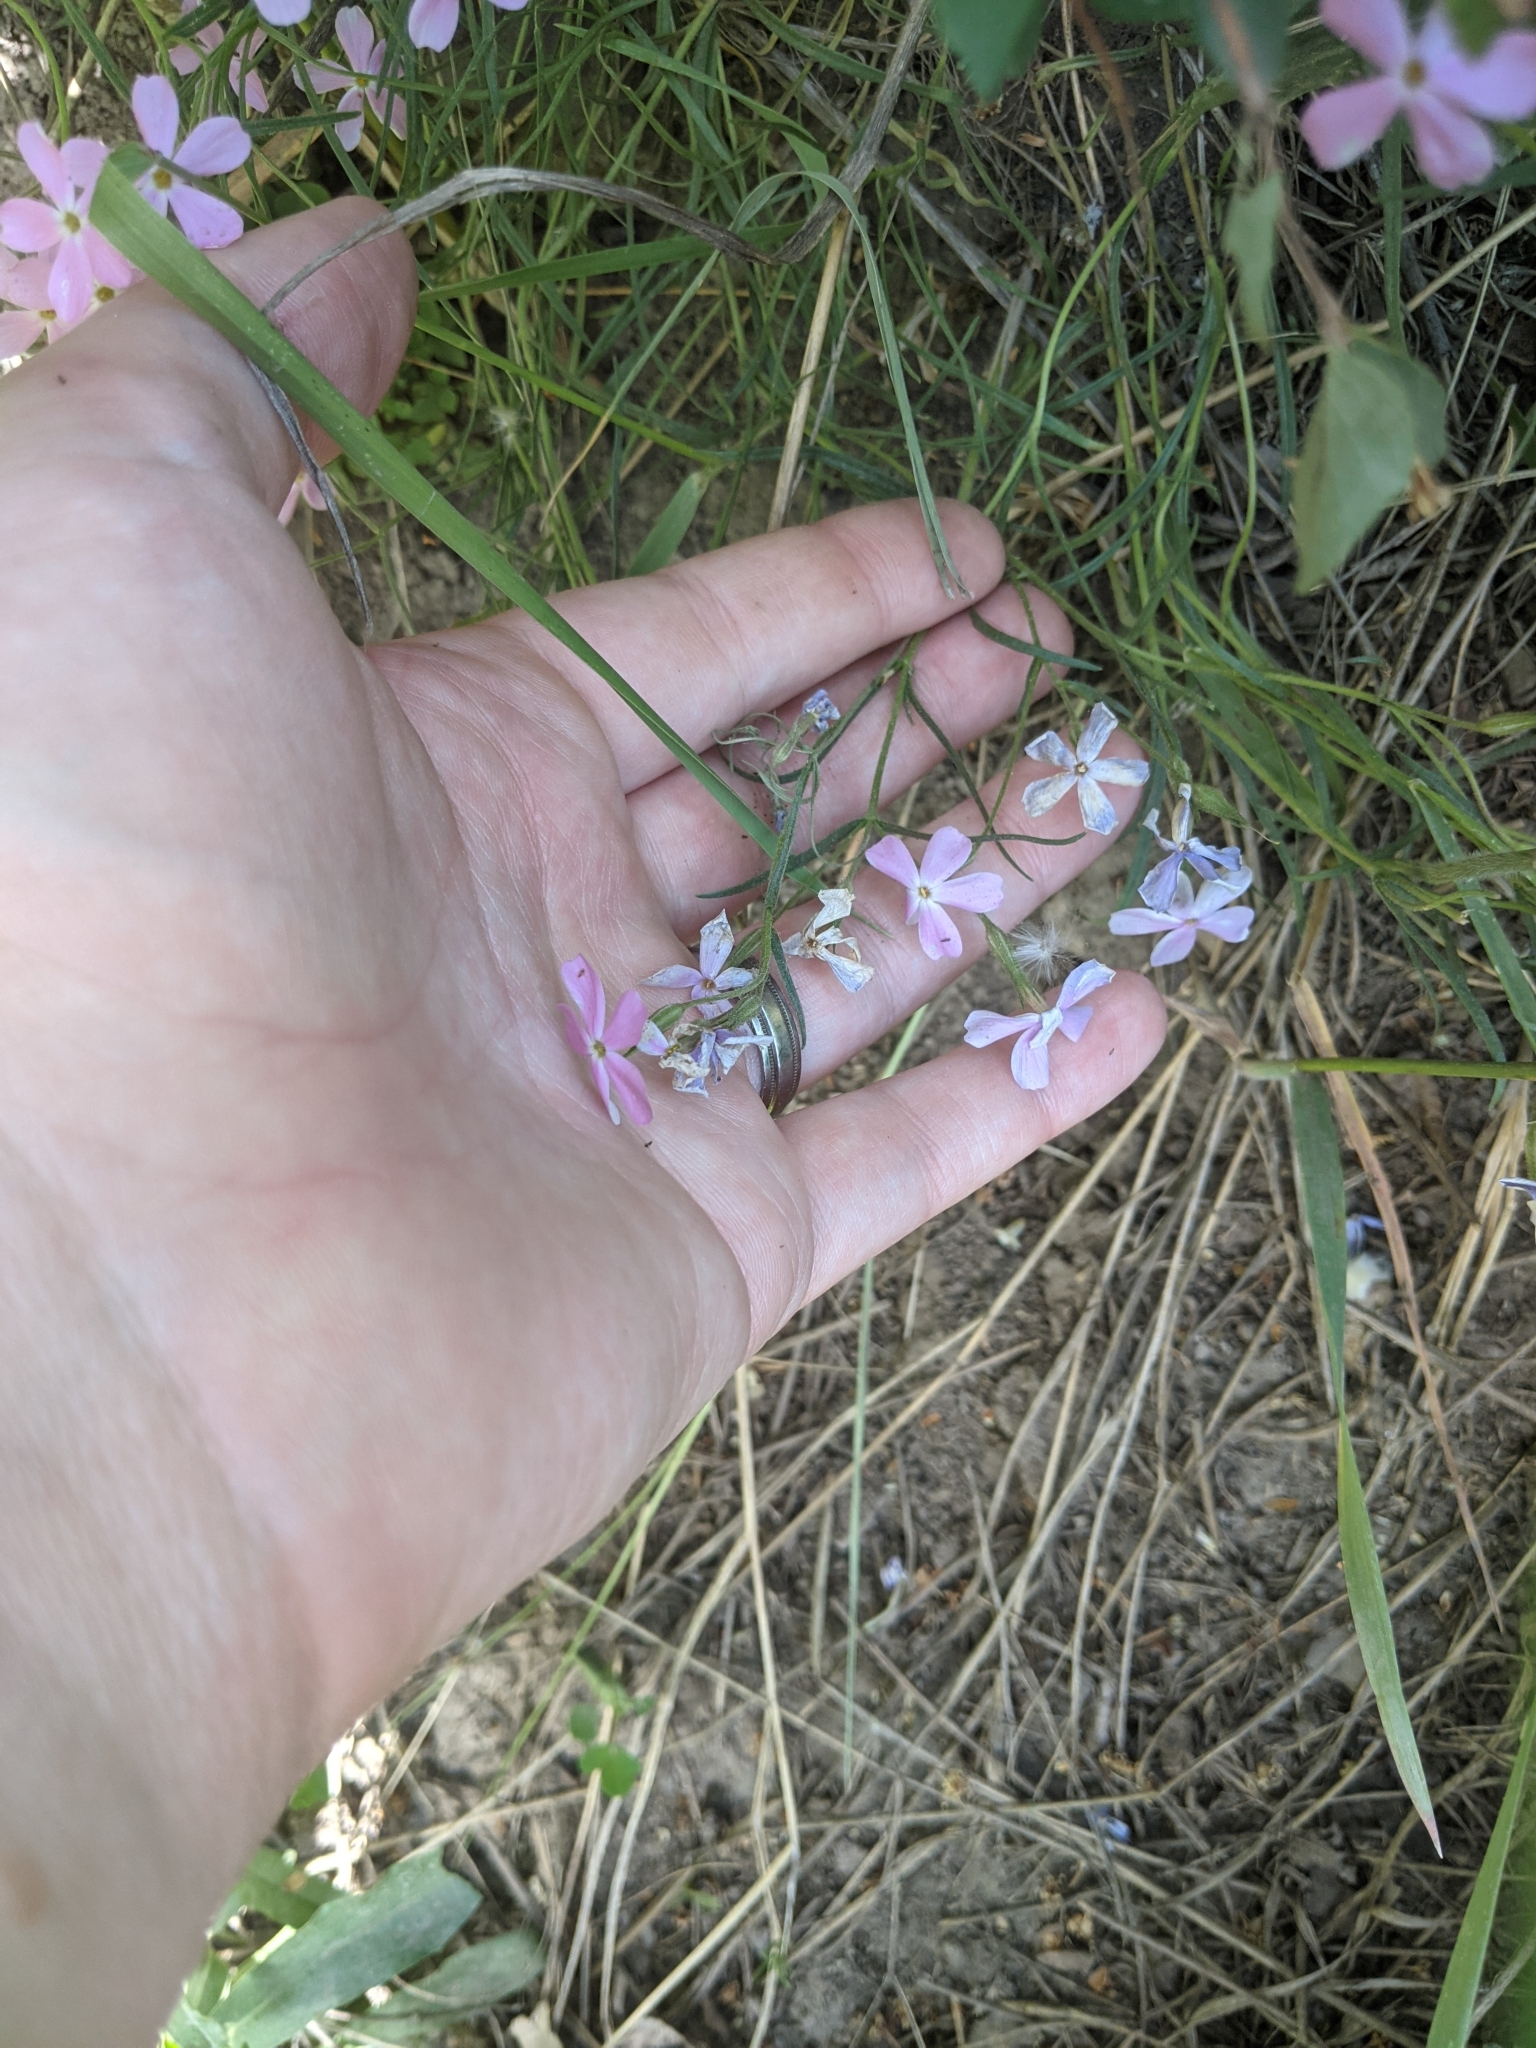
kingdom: Plantae
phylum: Tracheophyta
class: Magnoliopsida
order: Ericales
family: Polemoniaceae
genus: Phlox
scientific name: Phlox longifolia
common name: Longleaf phlox
